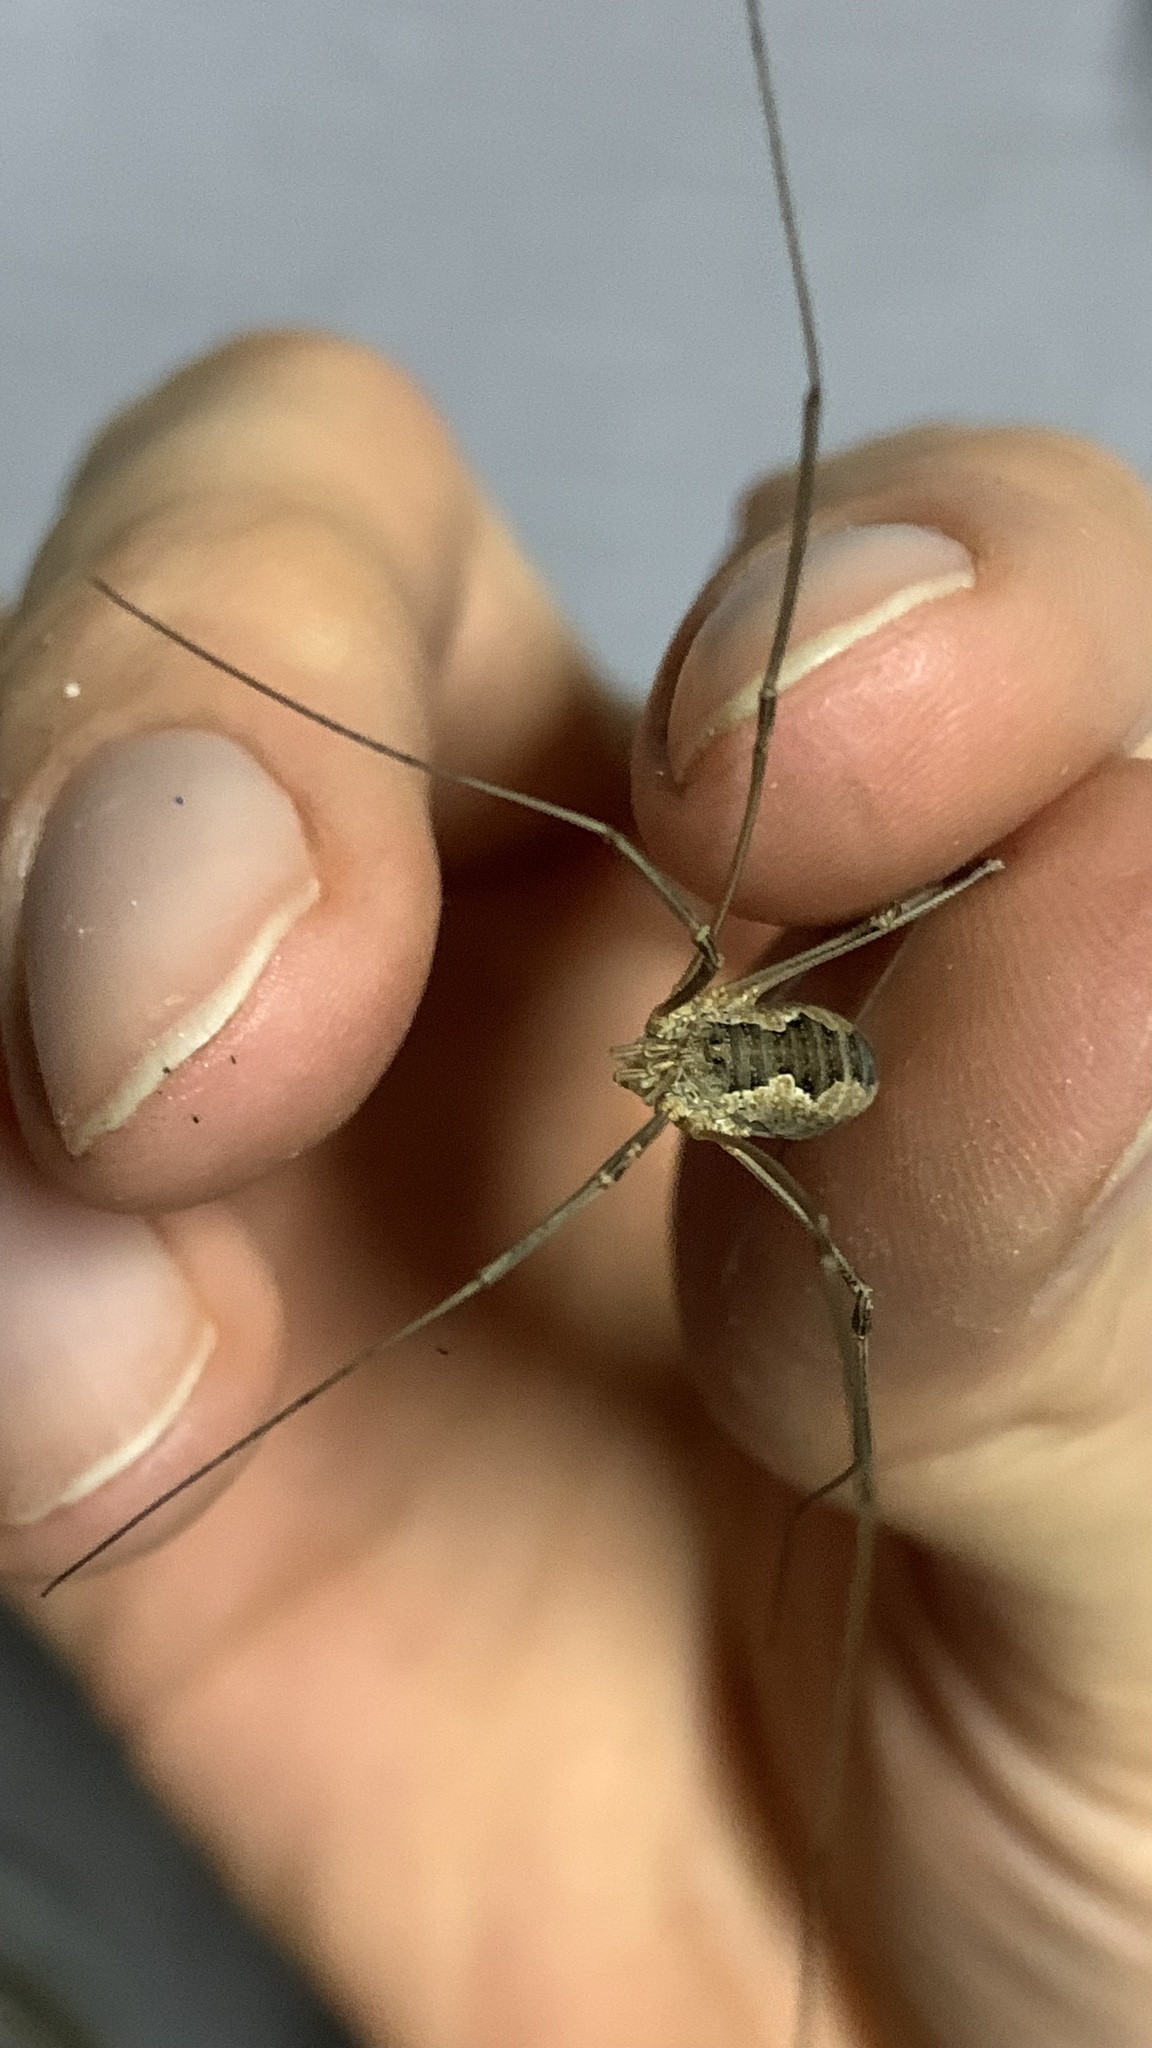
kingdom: Animalia
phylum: Arthropoda
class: Arachnida
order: Opiliones
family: Phalangiidae
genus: Phalangium
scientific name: Phalangium opilio
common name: Daddy longleg
